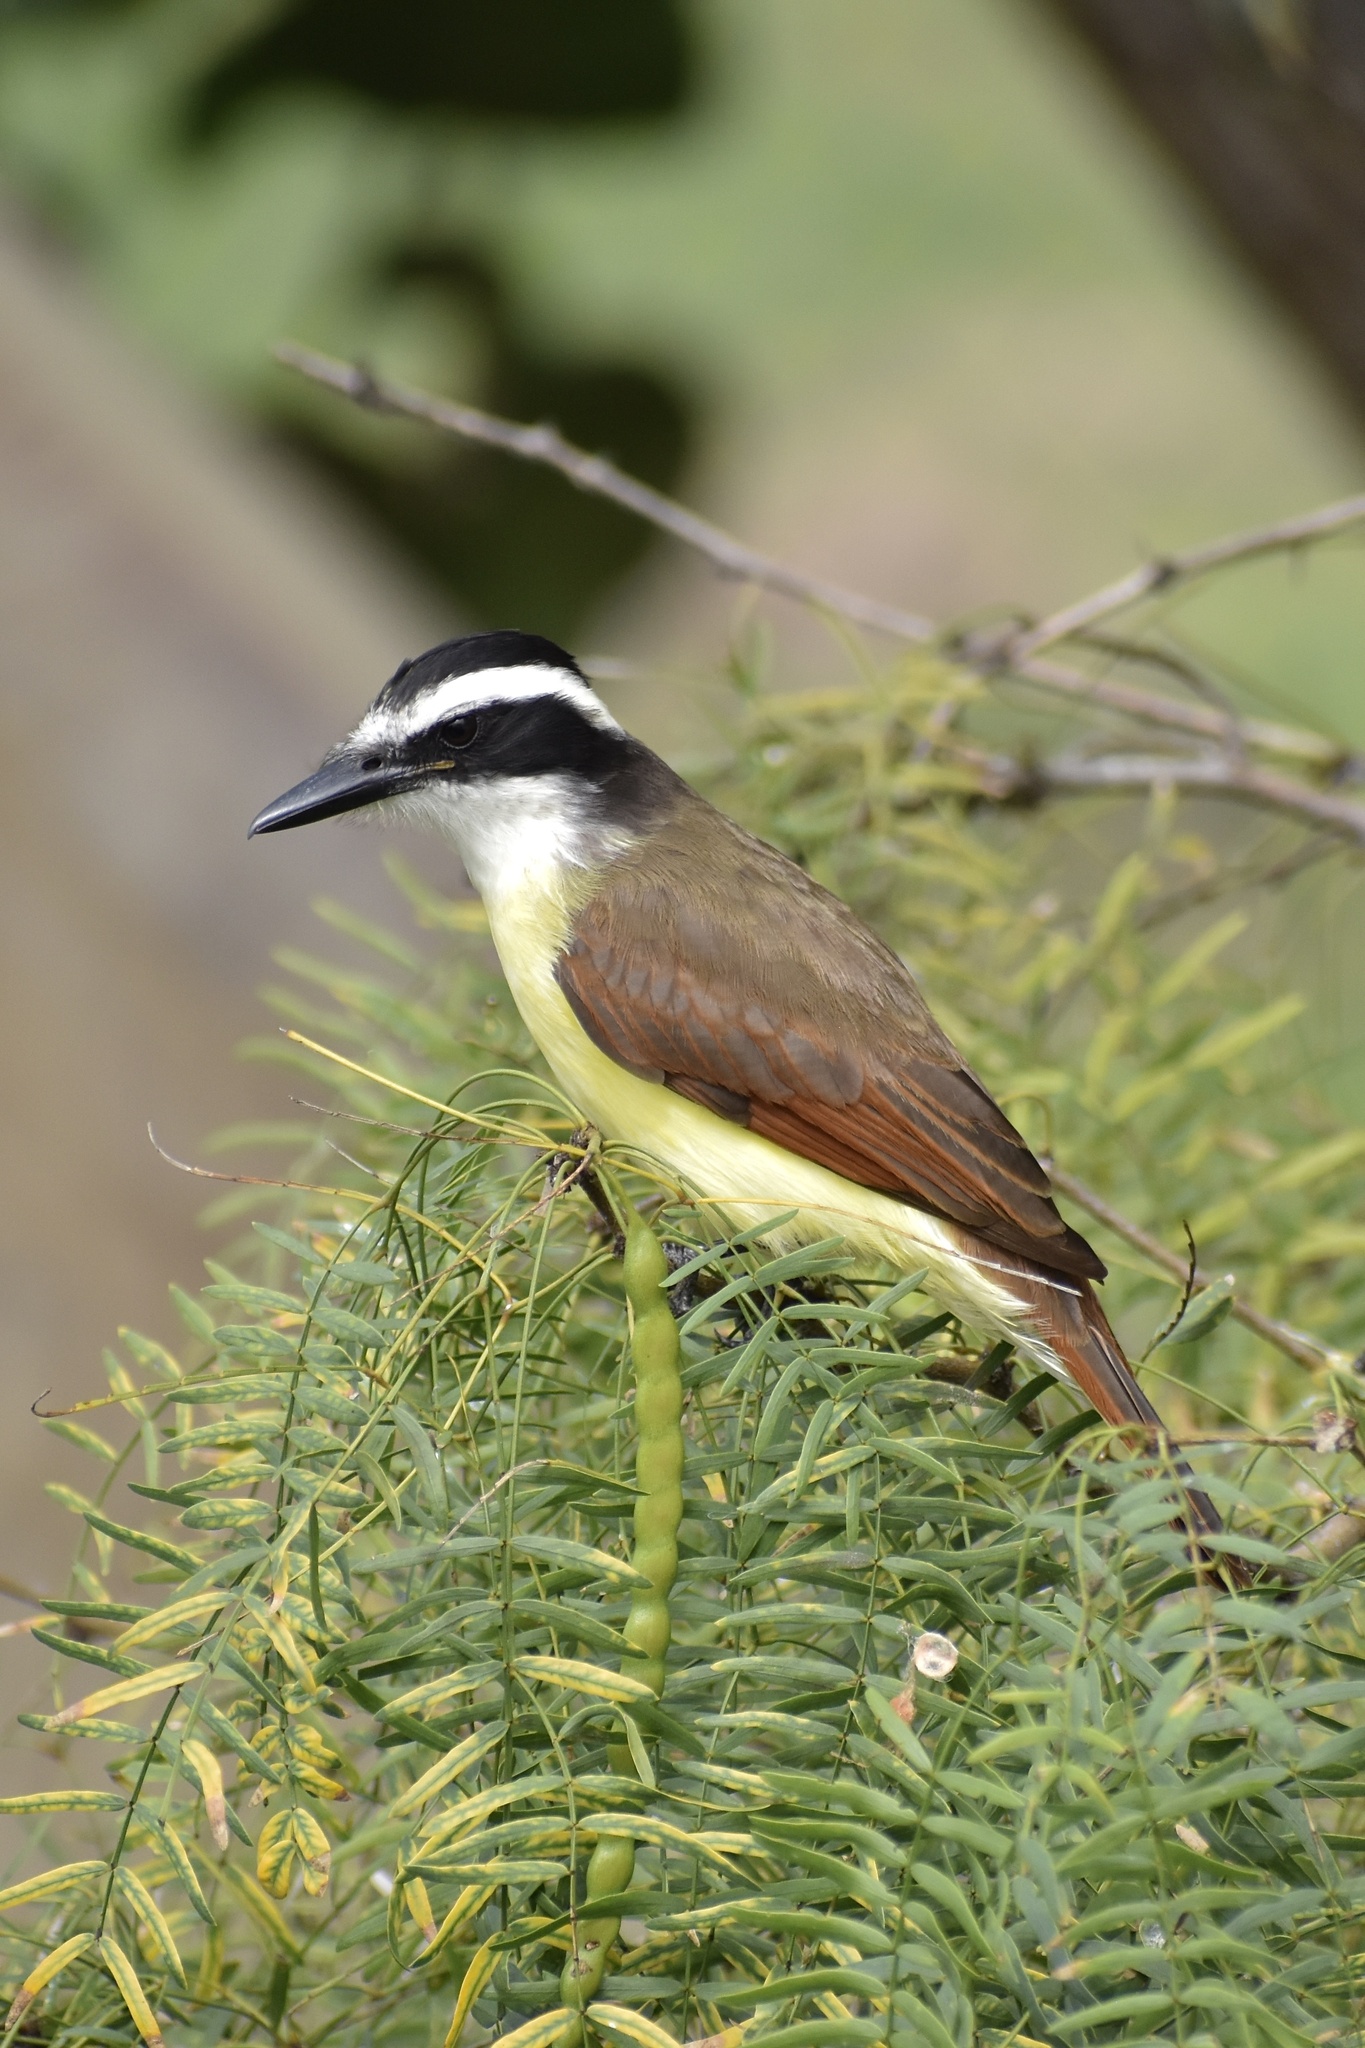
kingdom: Animalia
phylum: Chordata
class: Aves
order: Passeriformes
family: Tyrannidae
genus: Pitangus
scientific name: Pitangus sulphuratus
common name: Great kiskadee
